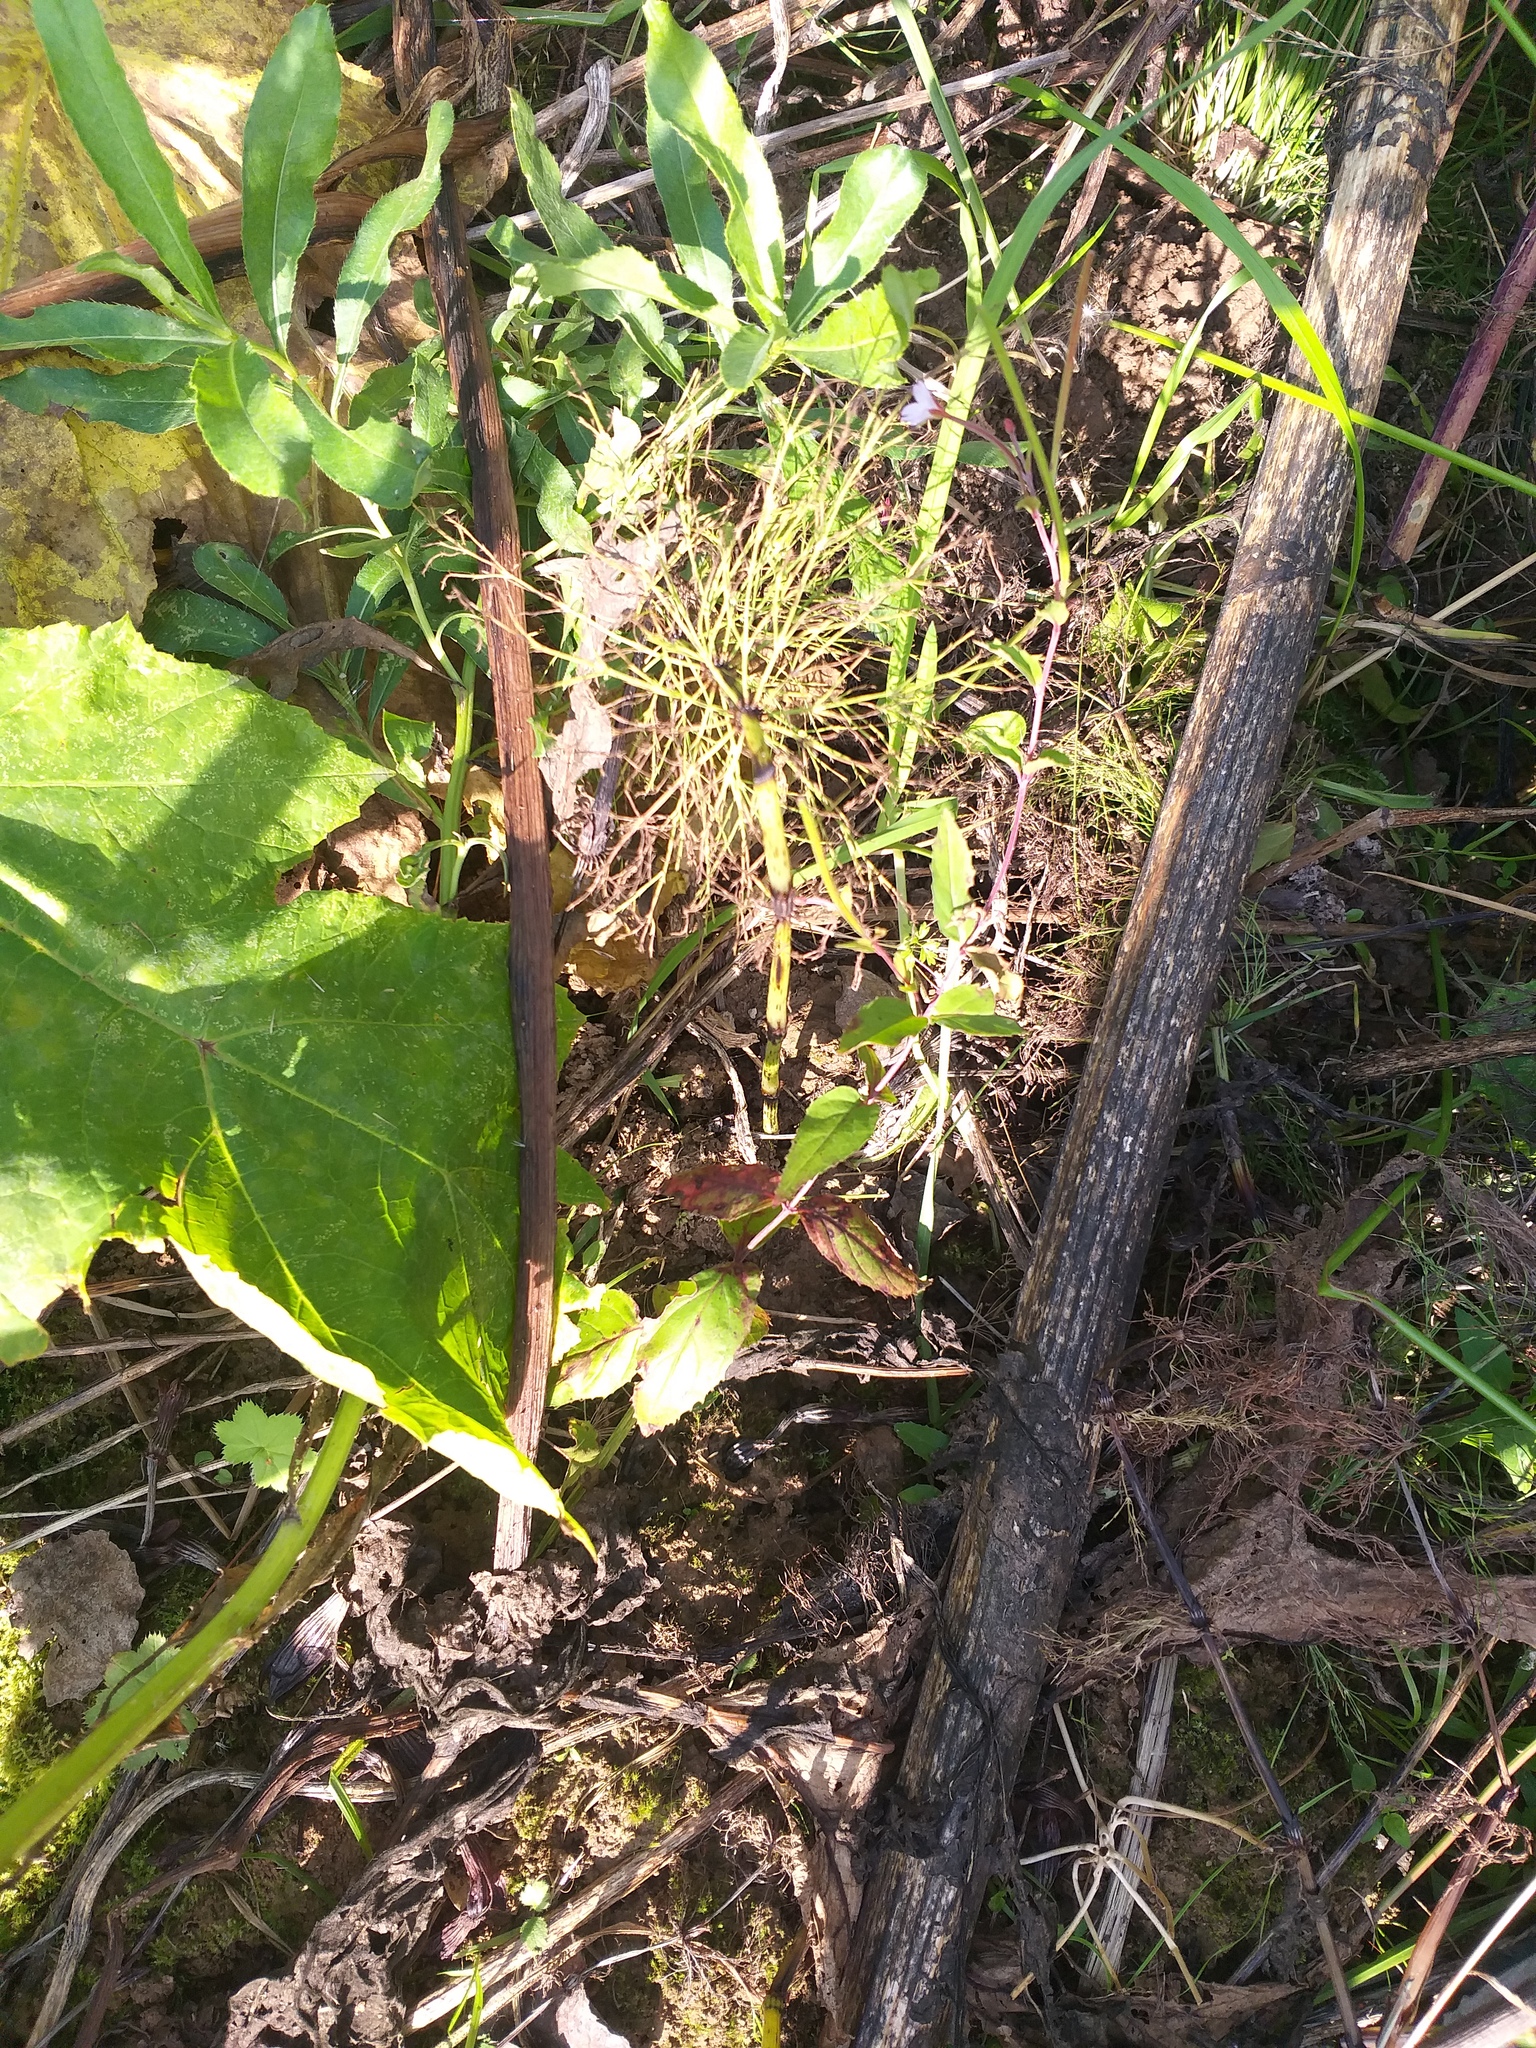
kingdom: Plantae
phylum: Tracheophyta
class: Magnoliopsida
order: Myrtales
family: Onagraceae
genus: Epilobium
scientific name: Epilobium montanum
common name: Broad-leaved willowherb
